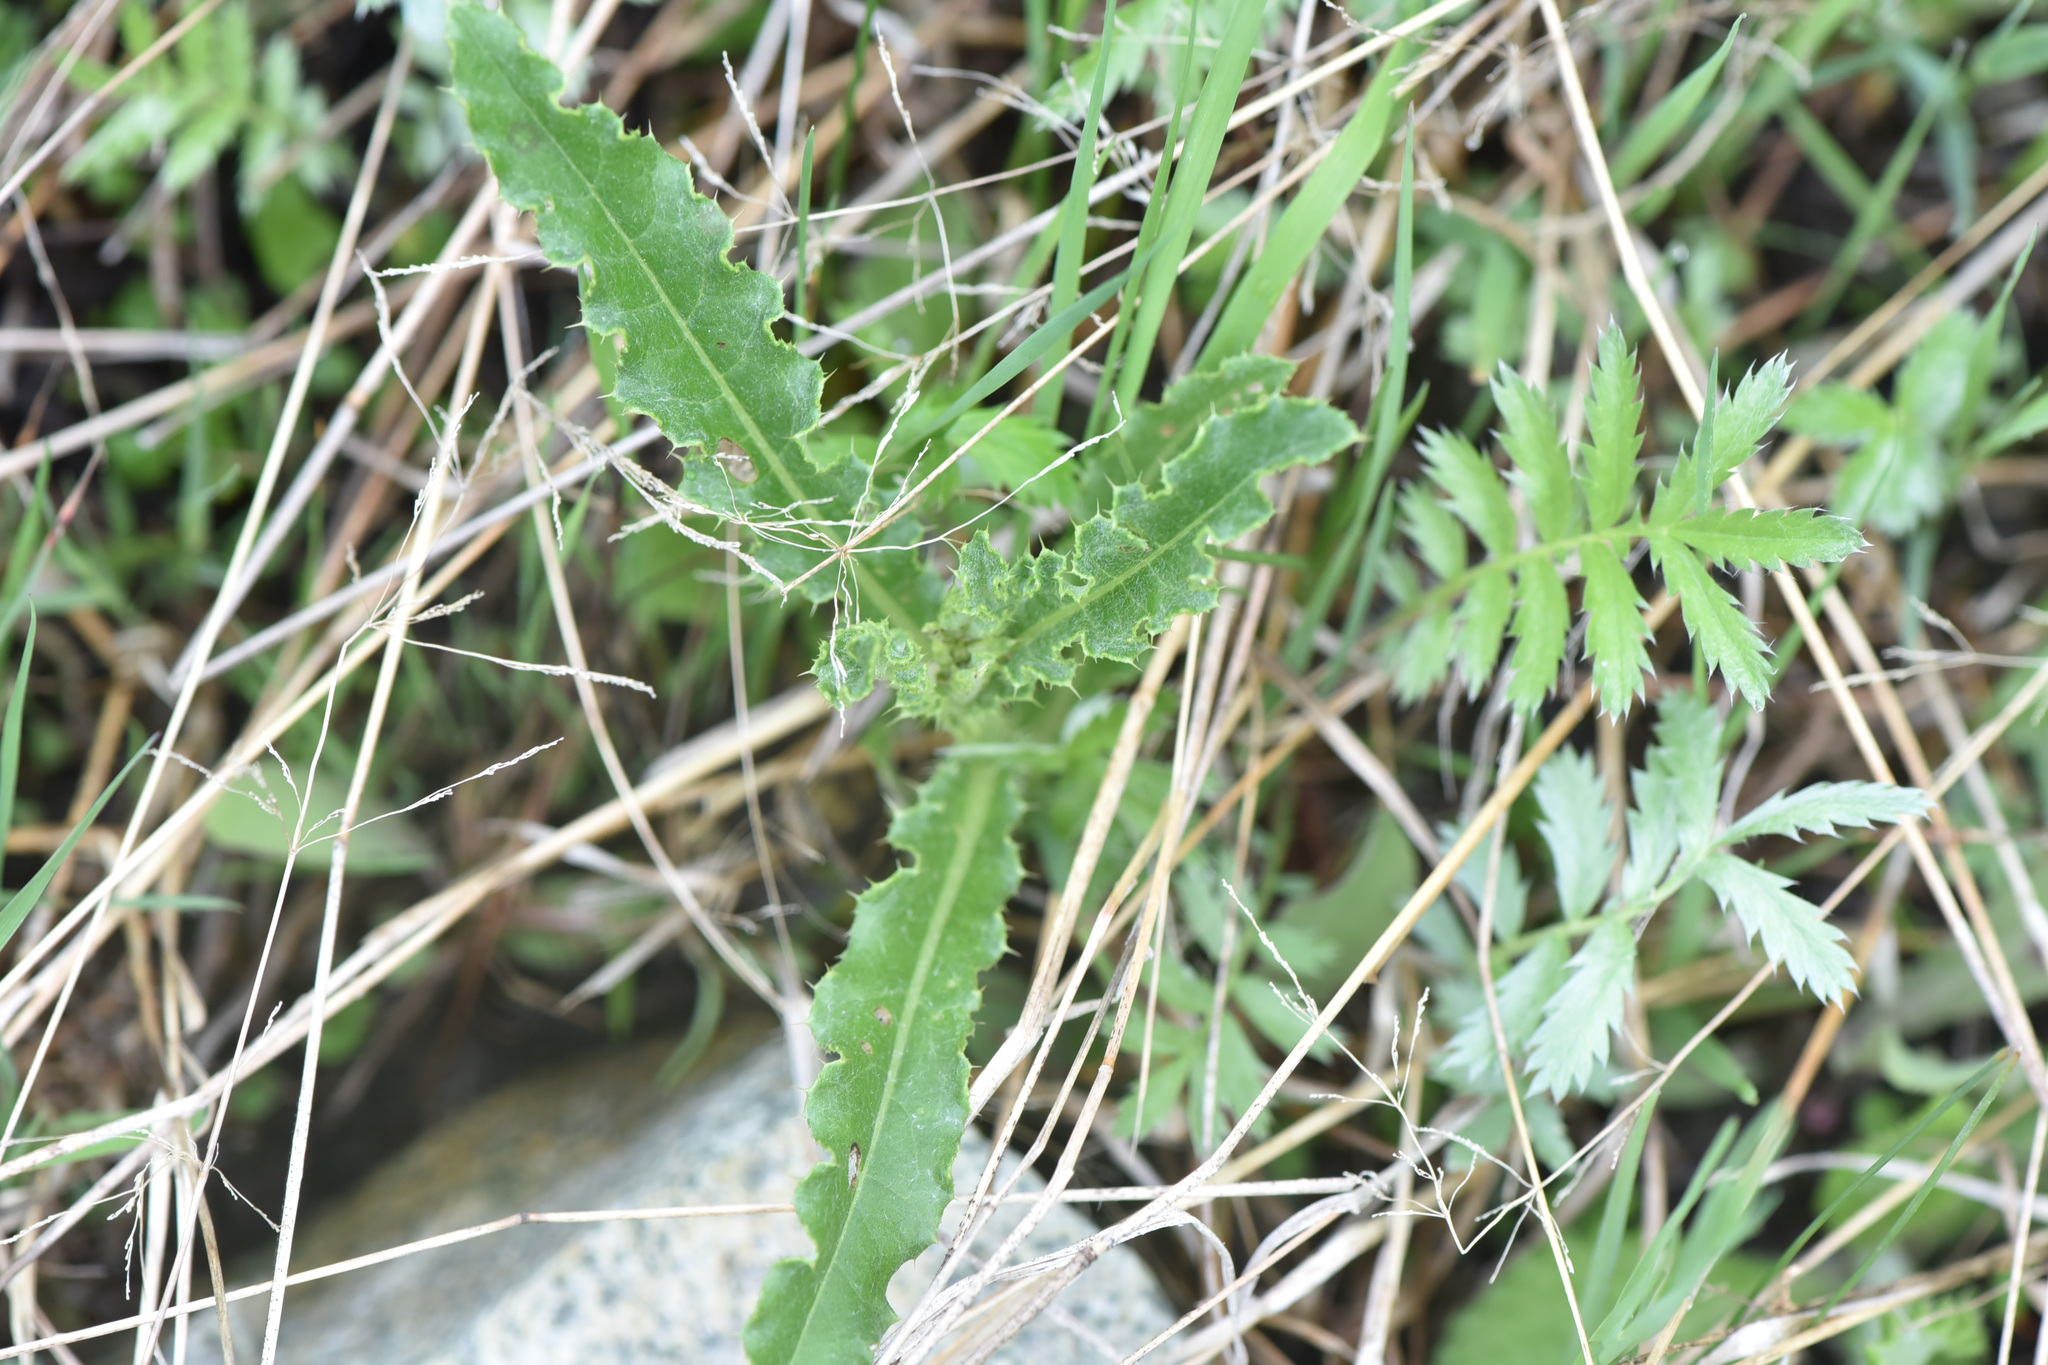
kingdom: Plantae
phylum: Tracheophyta
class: Magnoliopsida
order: Asterales
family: Asteraceae
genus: Cirsium
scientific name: Cirsium arvense
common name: Creeping thistle
